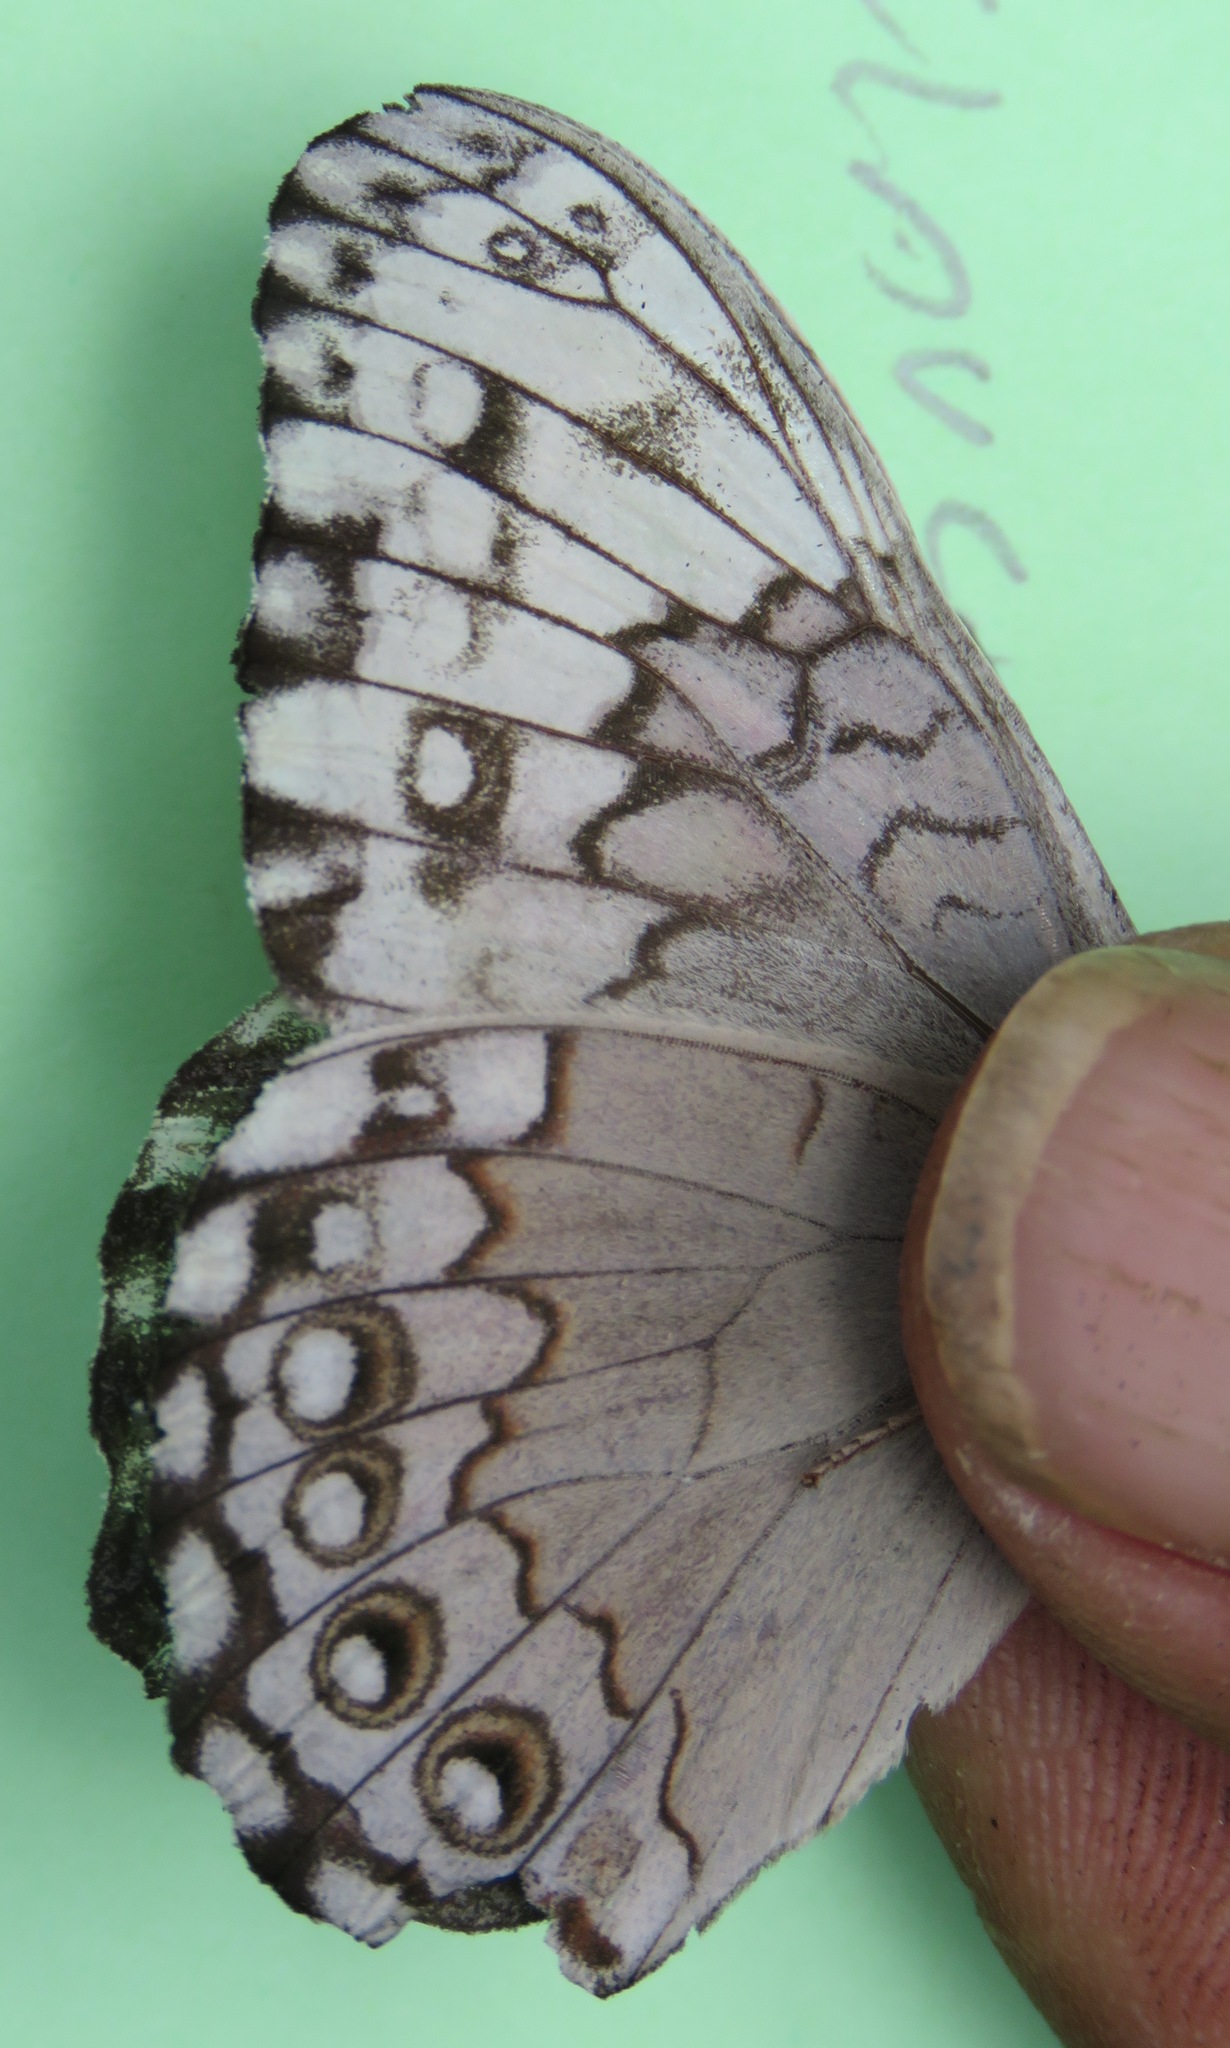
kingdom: Animalia
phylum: Arthropoda
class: Insecta
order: Lepidoptera
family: Nymphalidae
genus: Hamadryas
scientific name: Hamadryas glauconome
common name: Glaucous cracker
